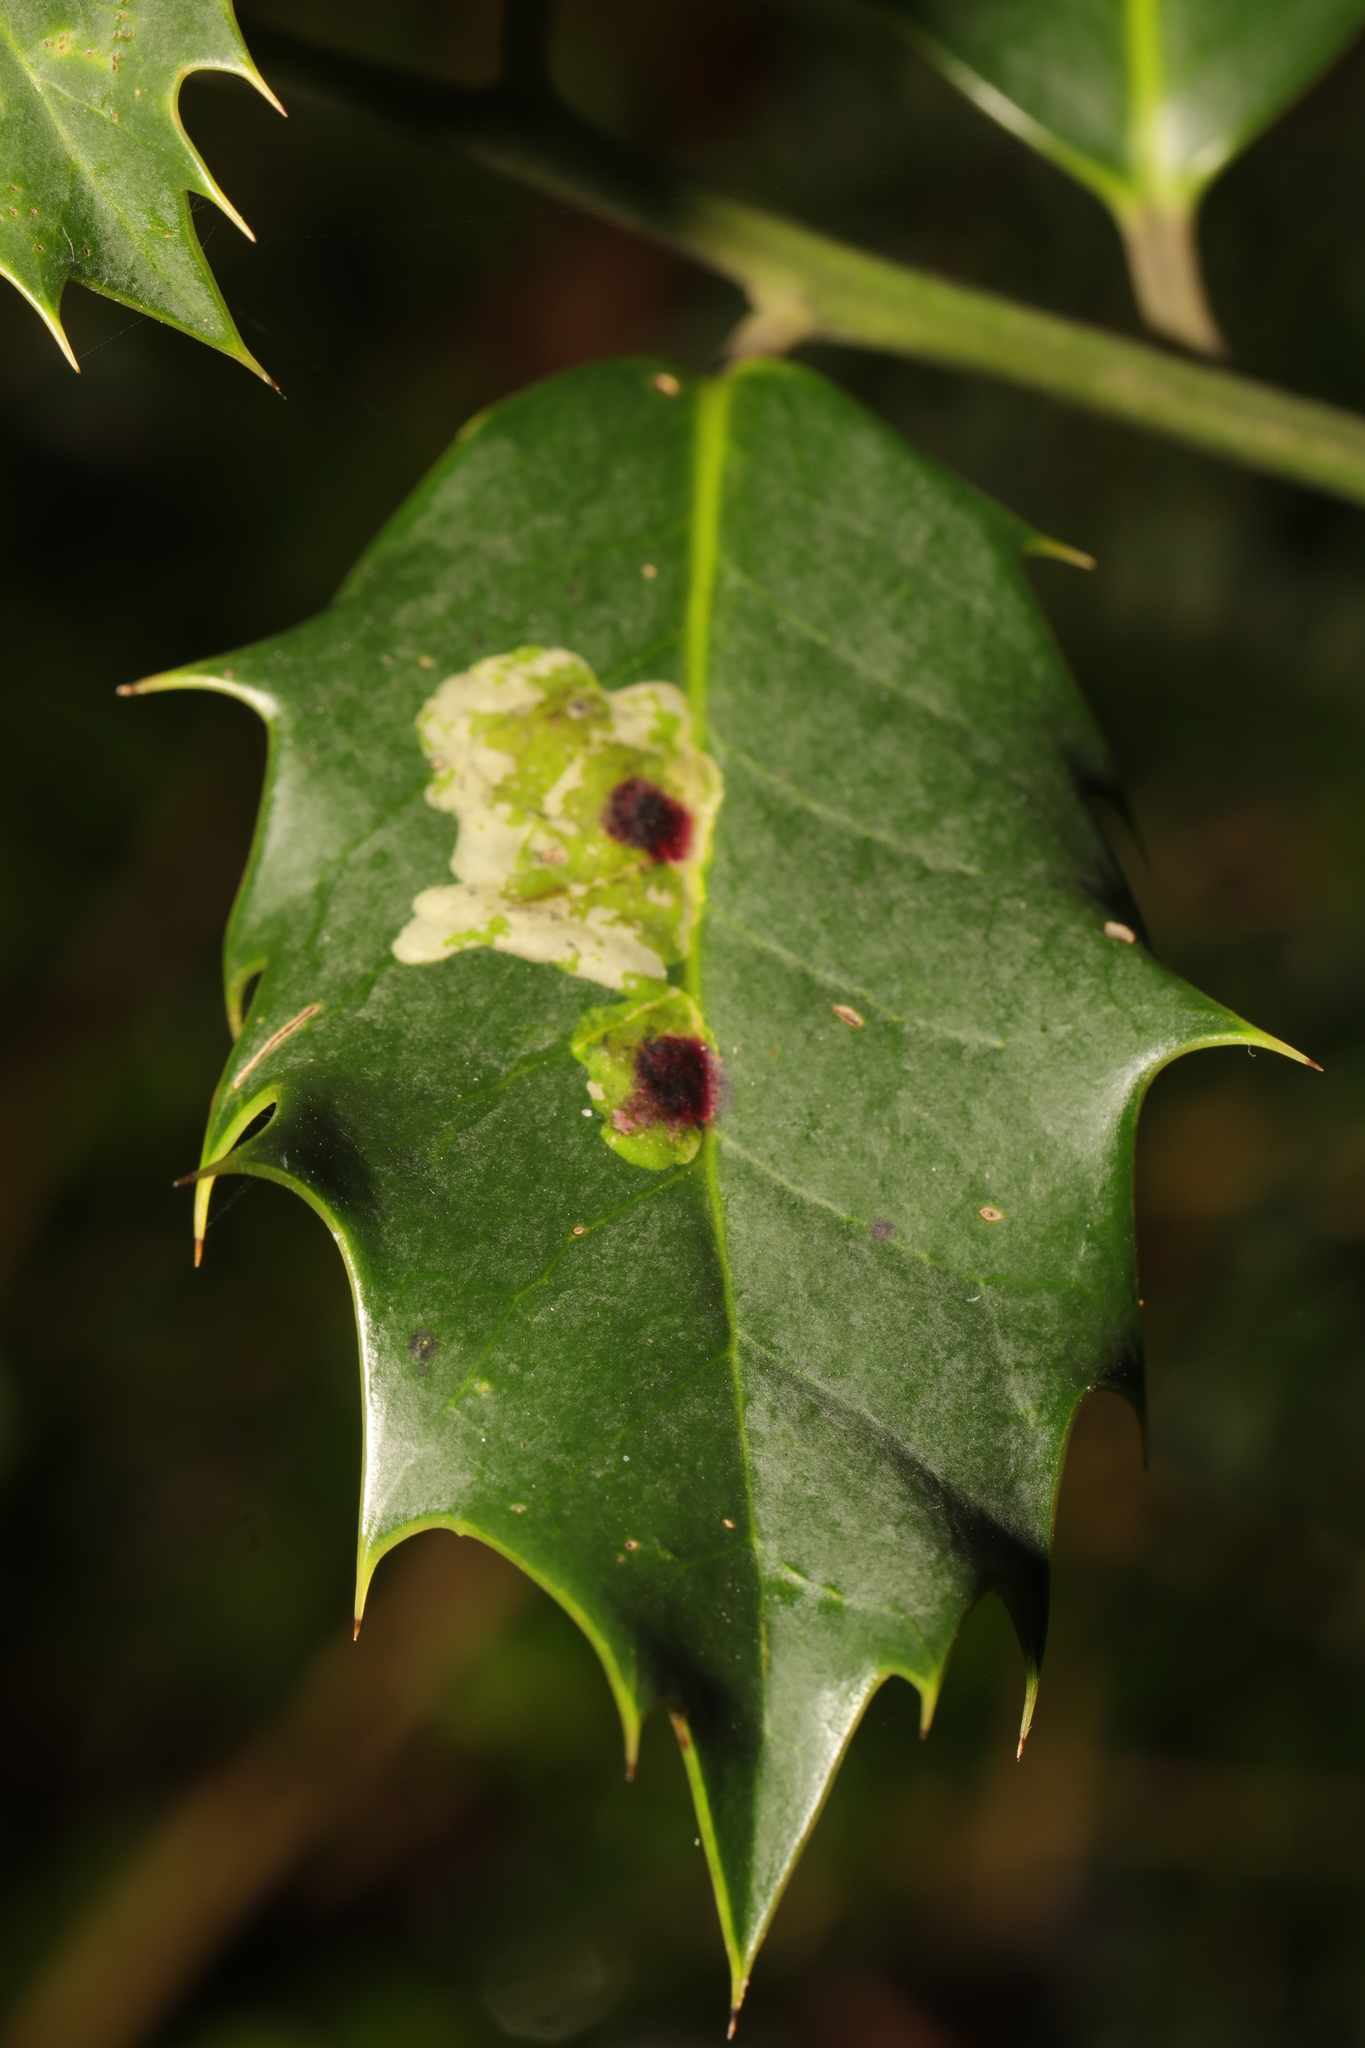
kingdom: Animalia
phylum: Arthropoda
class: Insecta
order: Diptera
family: Agromyzidae
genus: Phytomyza
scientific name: Phytomyza ilicis
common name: Holly leafminer
